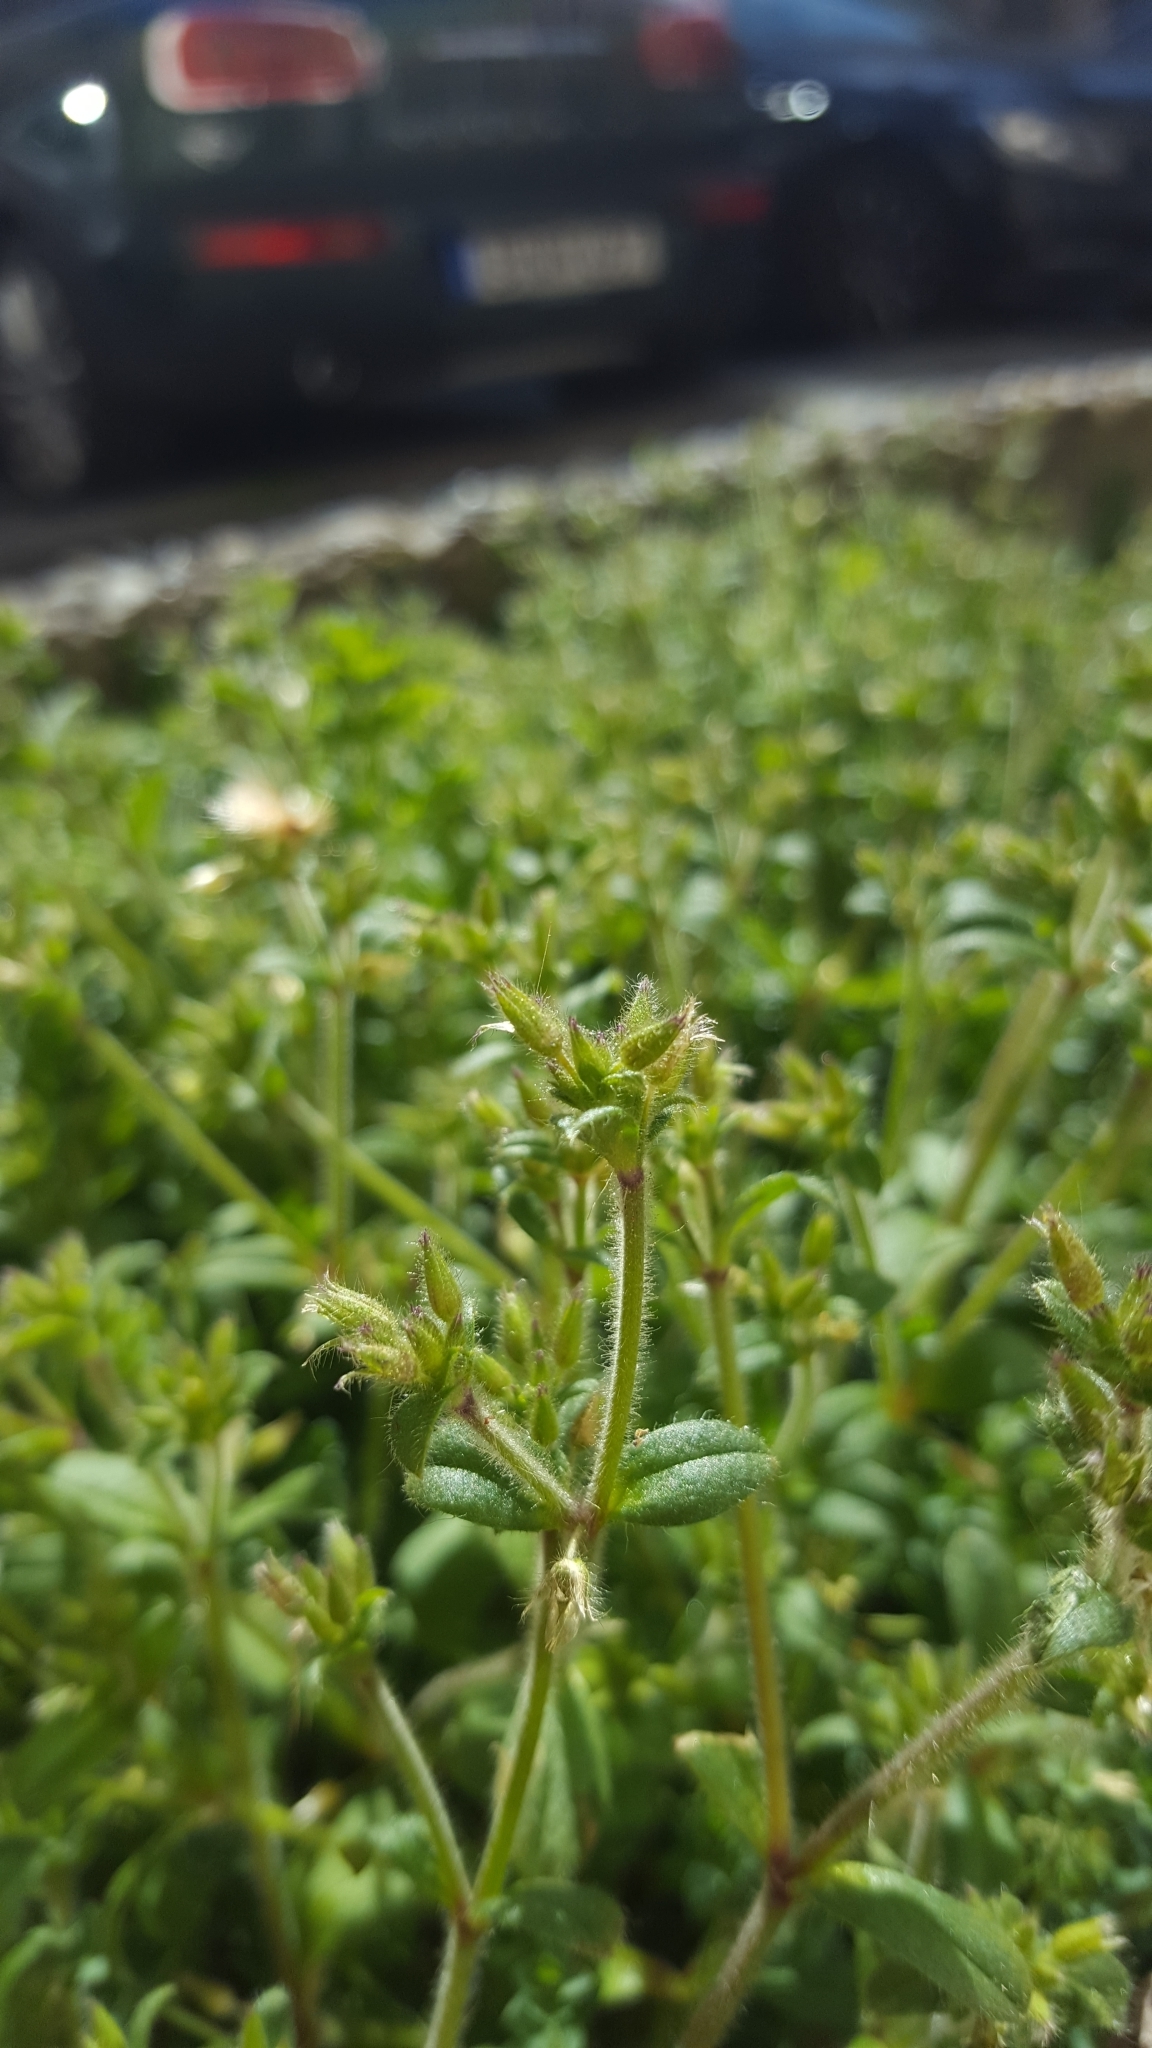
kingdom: Plantae
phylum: Tracheophyta
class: Magnoliopsida
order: Caryophyllales
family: Caryophyllaceae
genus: Cerastium
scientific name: Cerastium glomeratum
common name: Sticky chickweed
